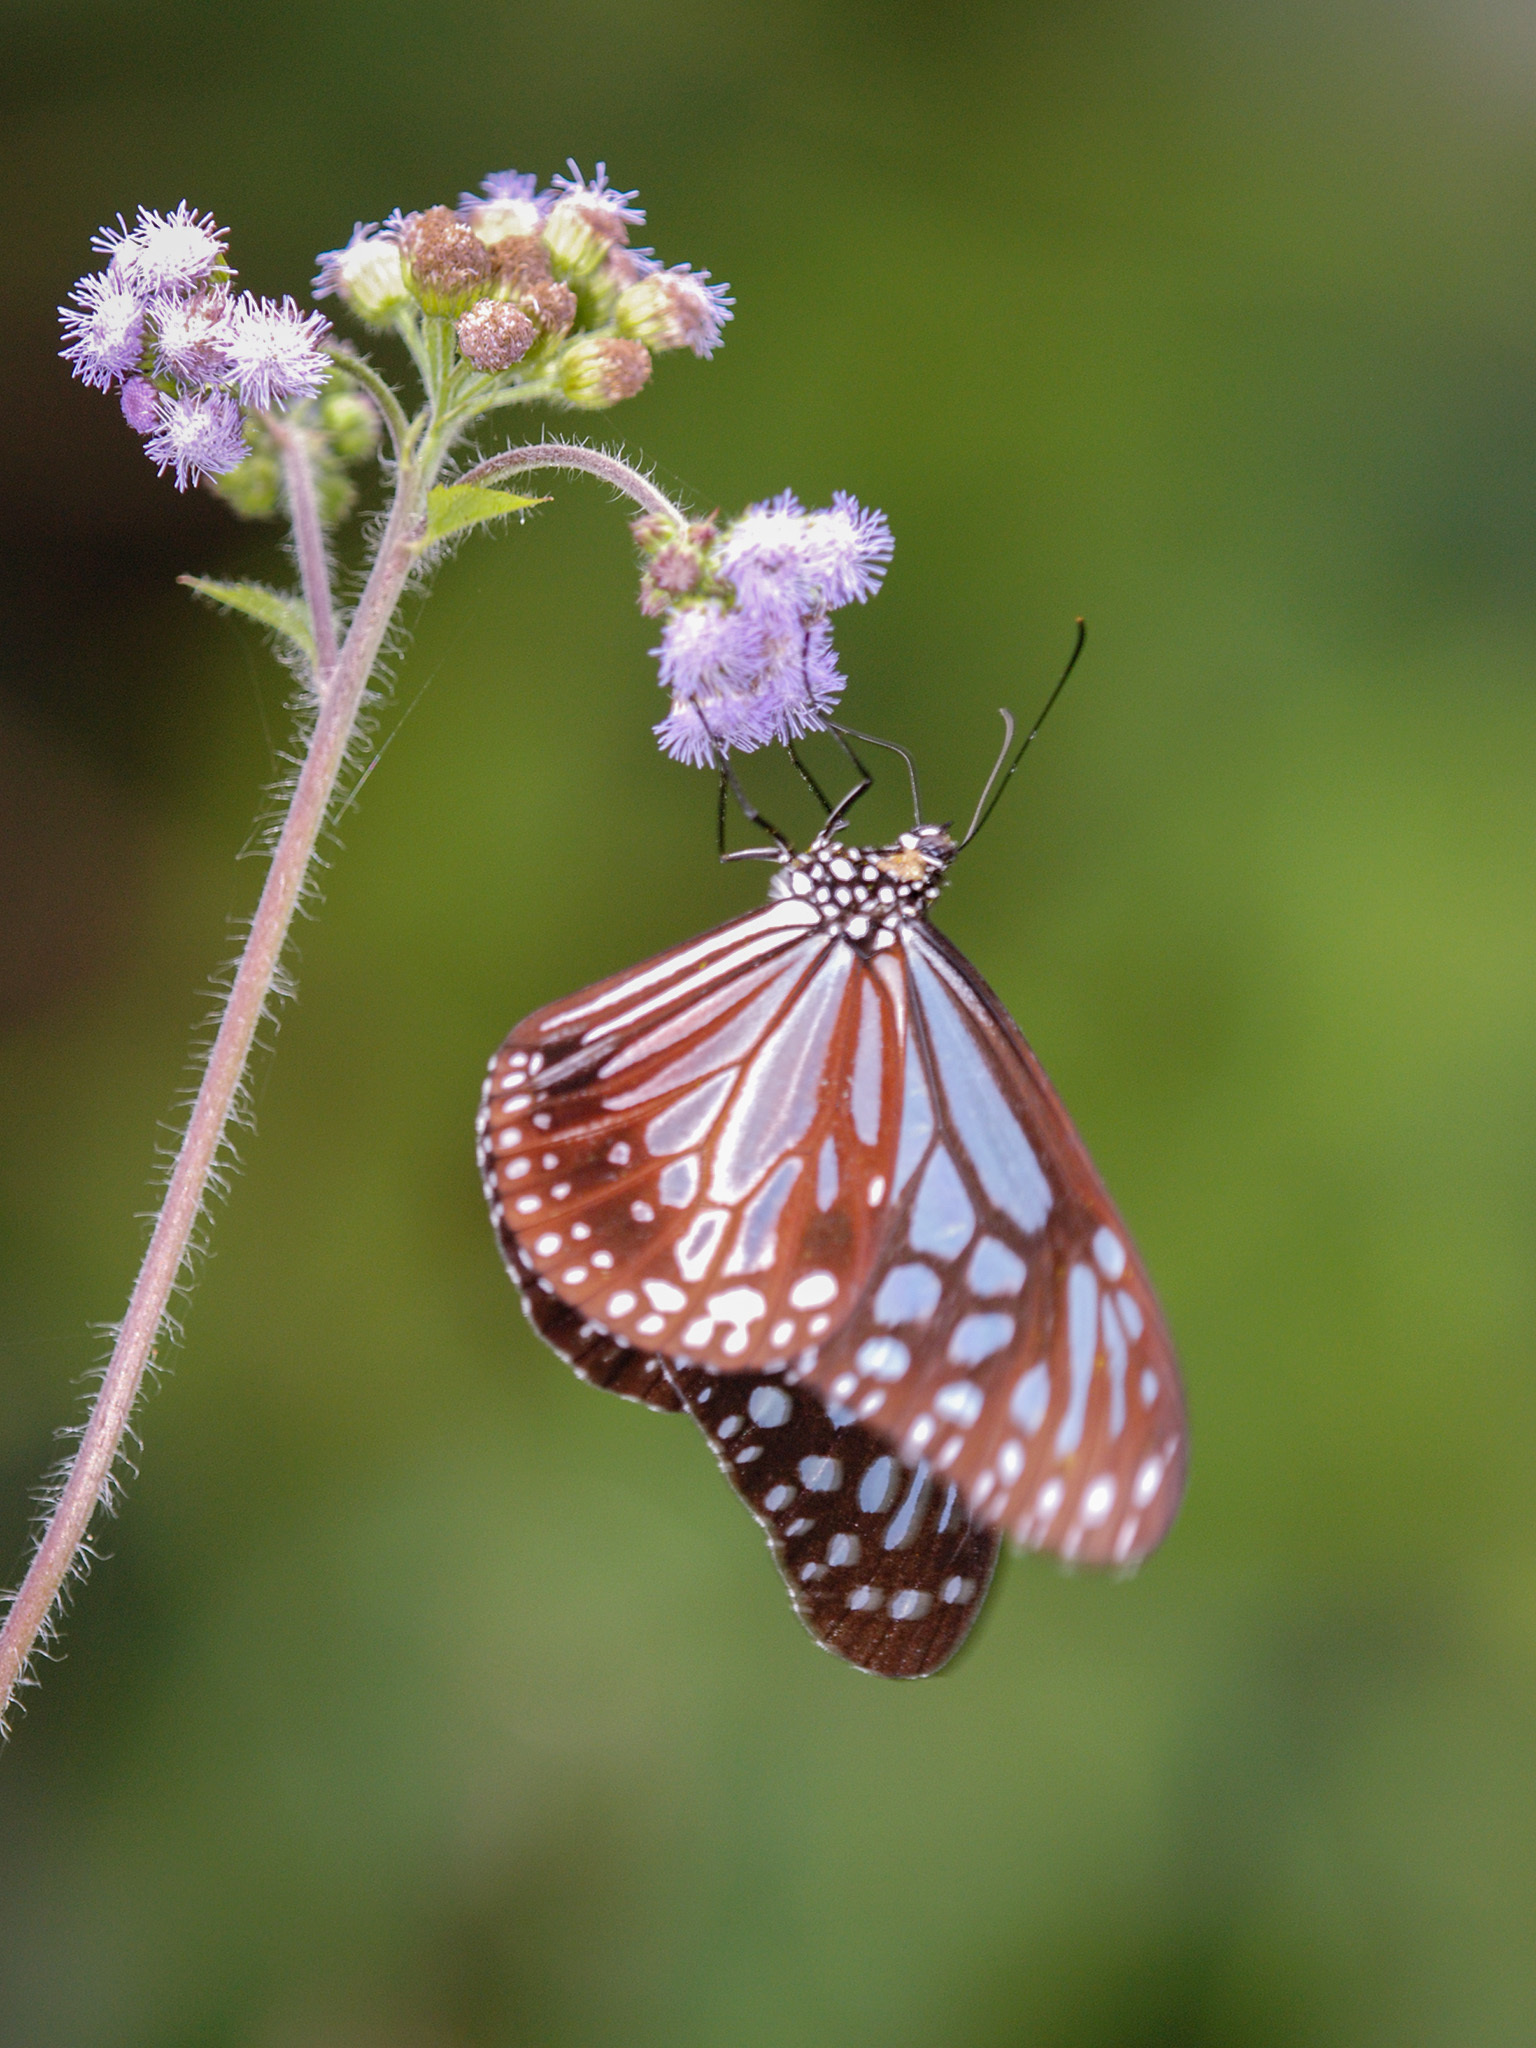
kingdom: Animalia
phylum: Arthropoda
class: Insecta
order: Lepidoptera
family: Nymphalidae
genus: Parantica
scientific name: Parantica melaneus
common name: Chocolate tiger
